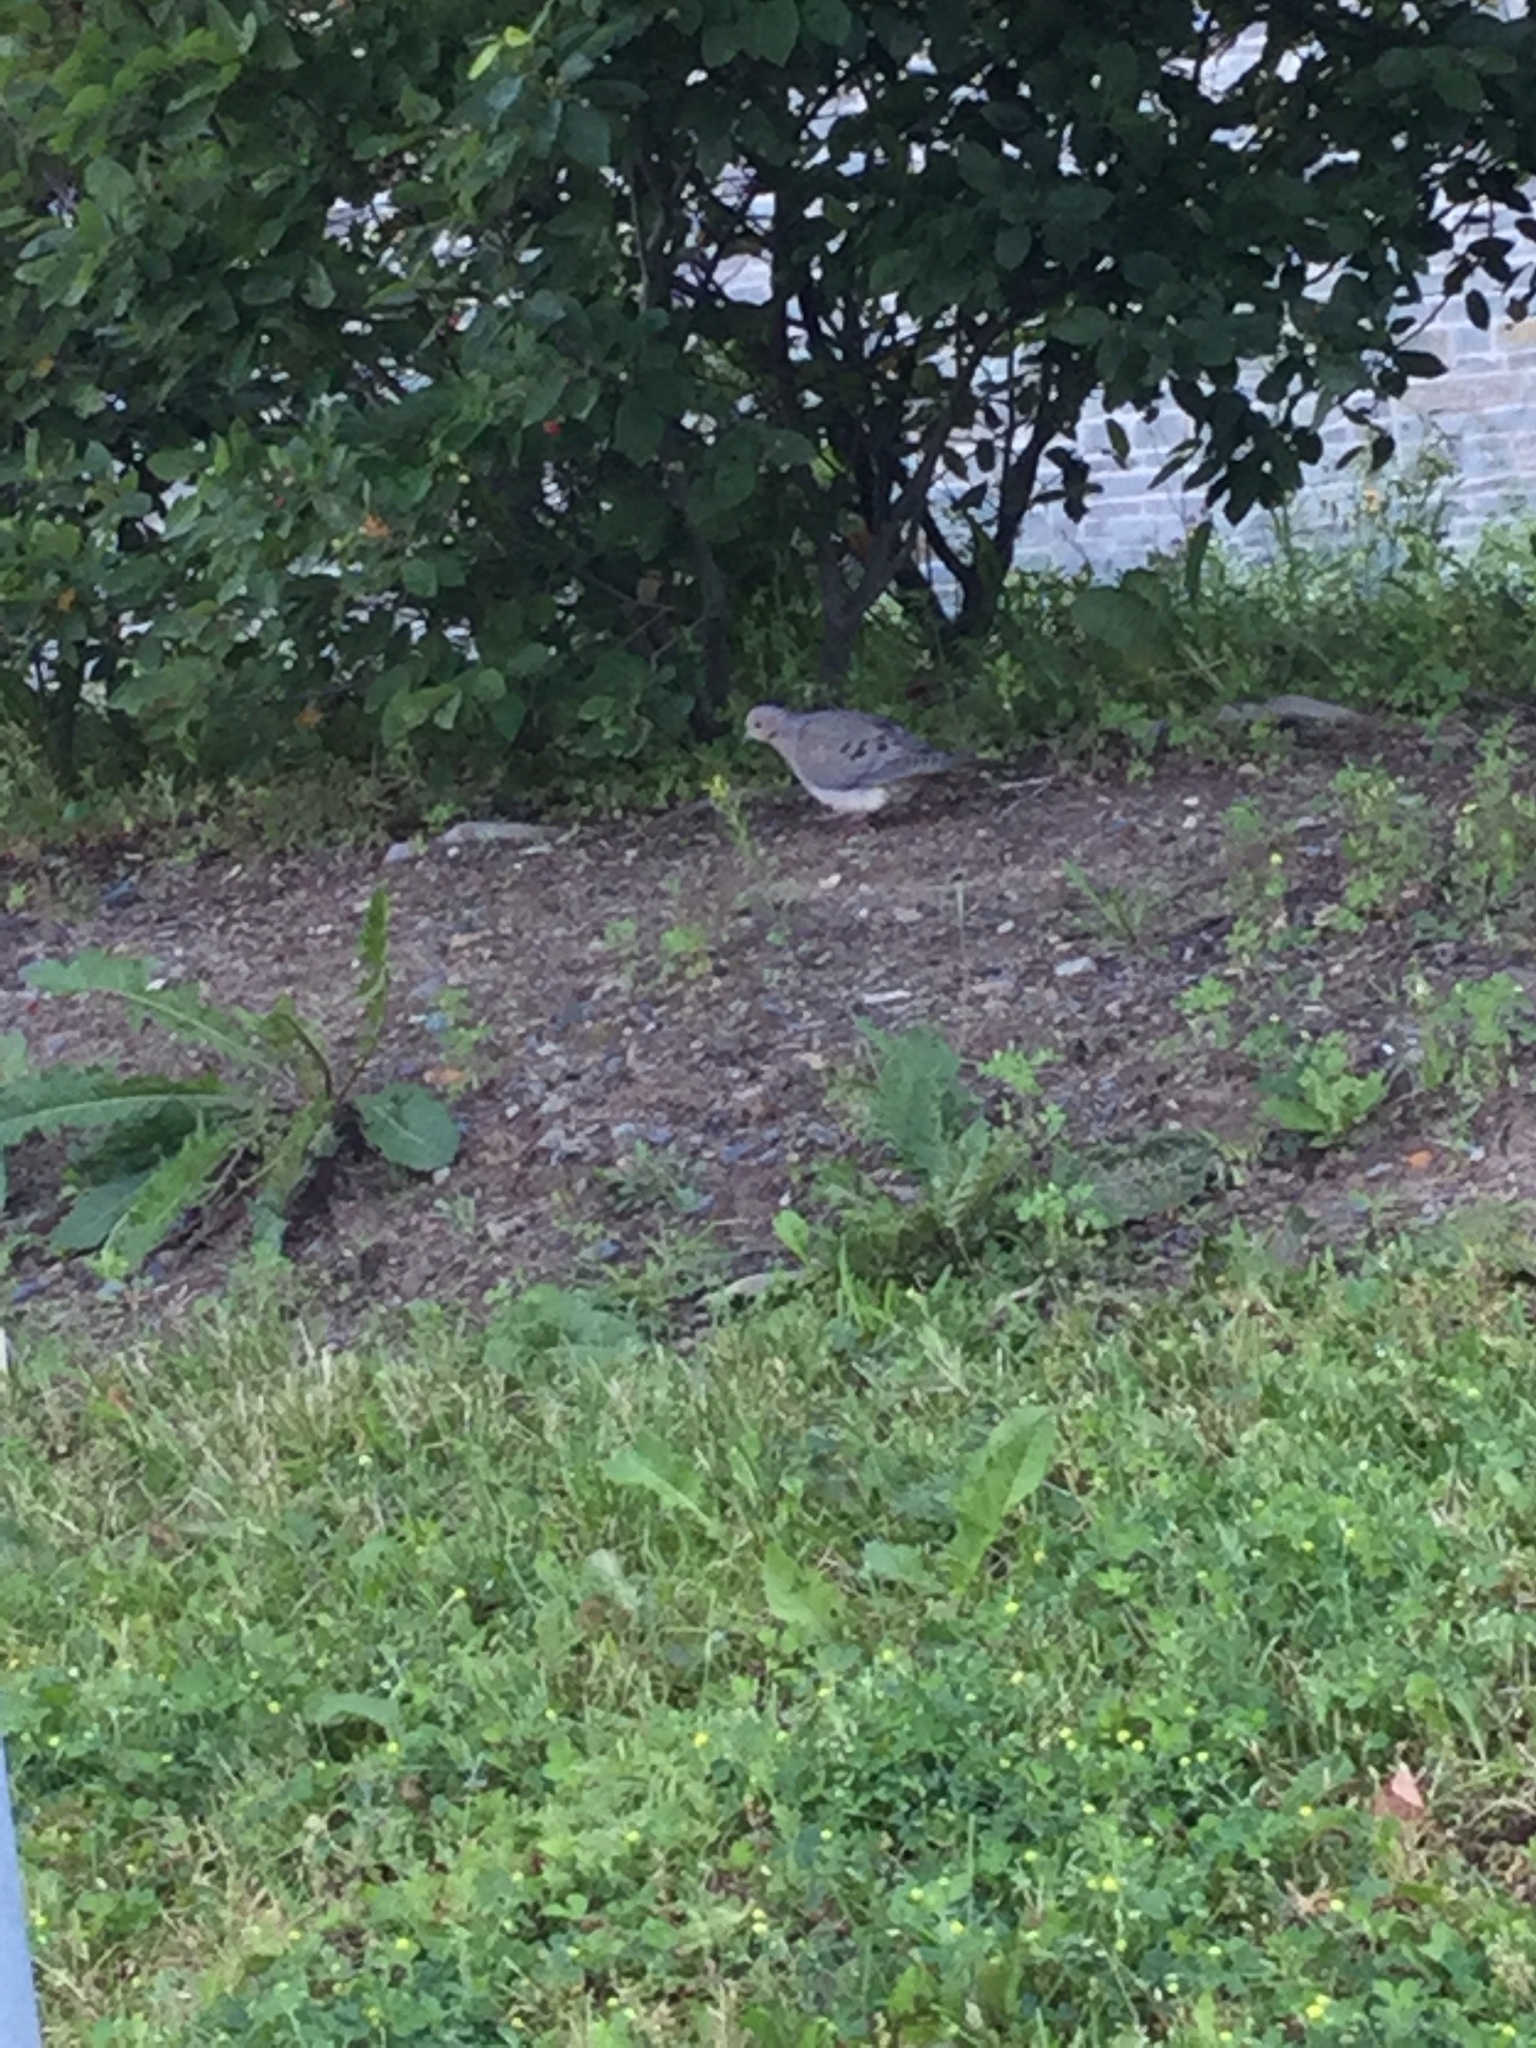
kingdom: Animalia
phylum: Chordata
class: Aves
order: Columbiformes
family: Columbidae
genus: Zenaida
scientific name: Zenaida macroura
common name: Mourning dove
